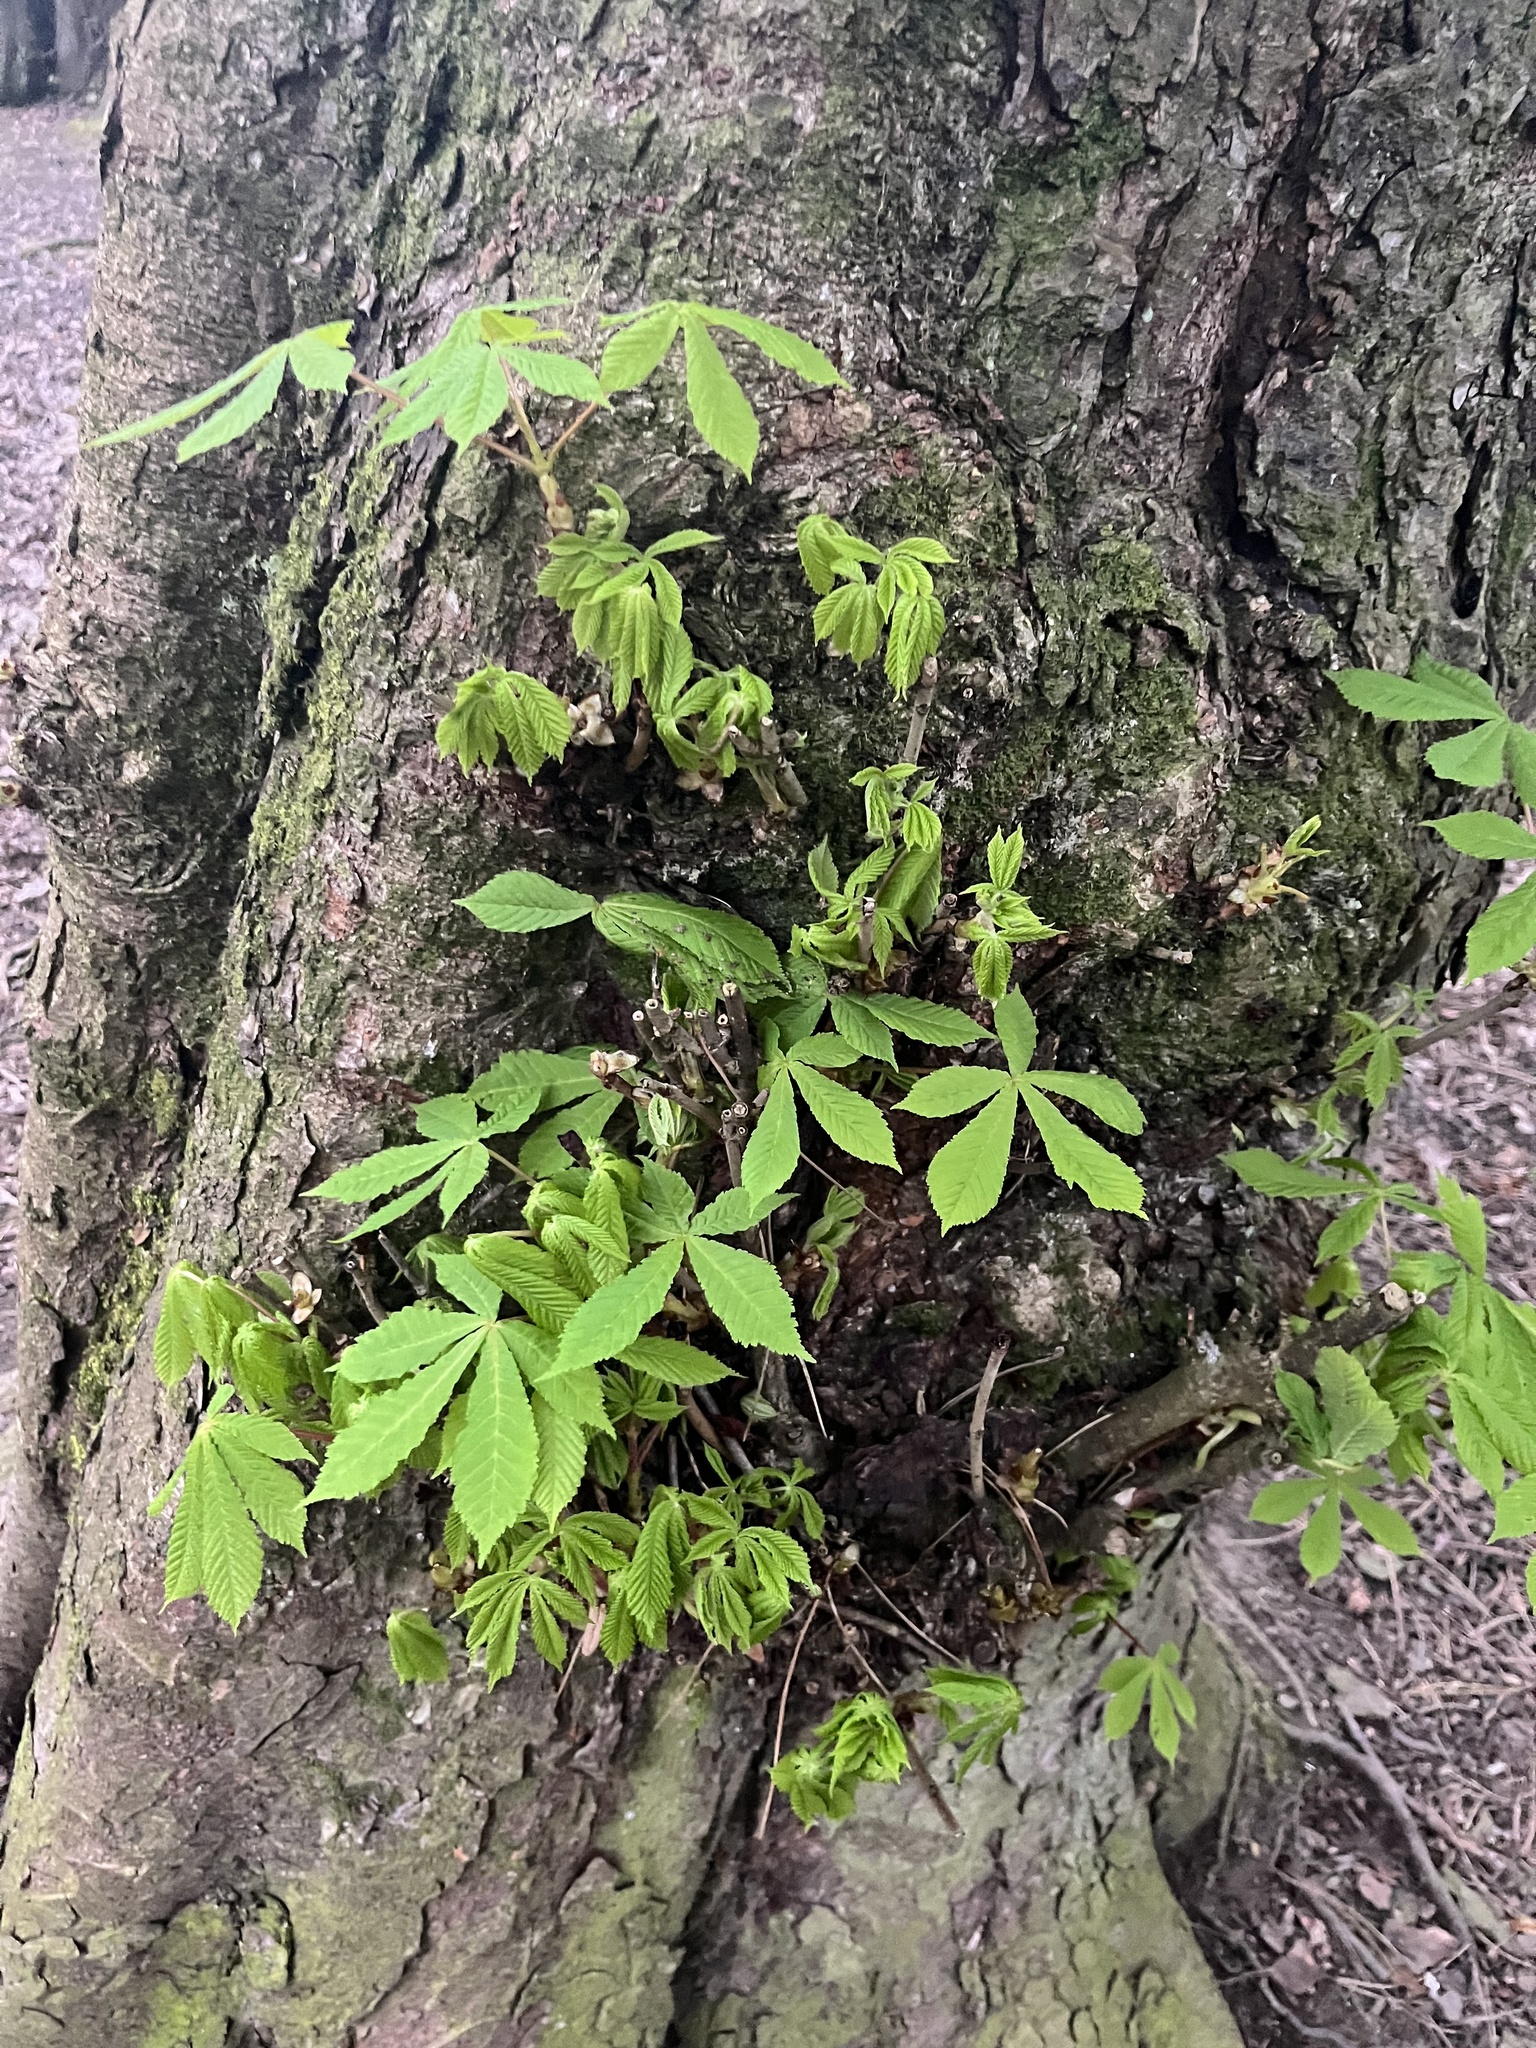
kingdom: Plantae
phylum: Tracheophyta
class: Magnoliopsida
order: Sapindales
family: Sapindaceae
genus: Aesculus
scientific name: Aesculus hippocastanum
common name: Horse-chestnut
